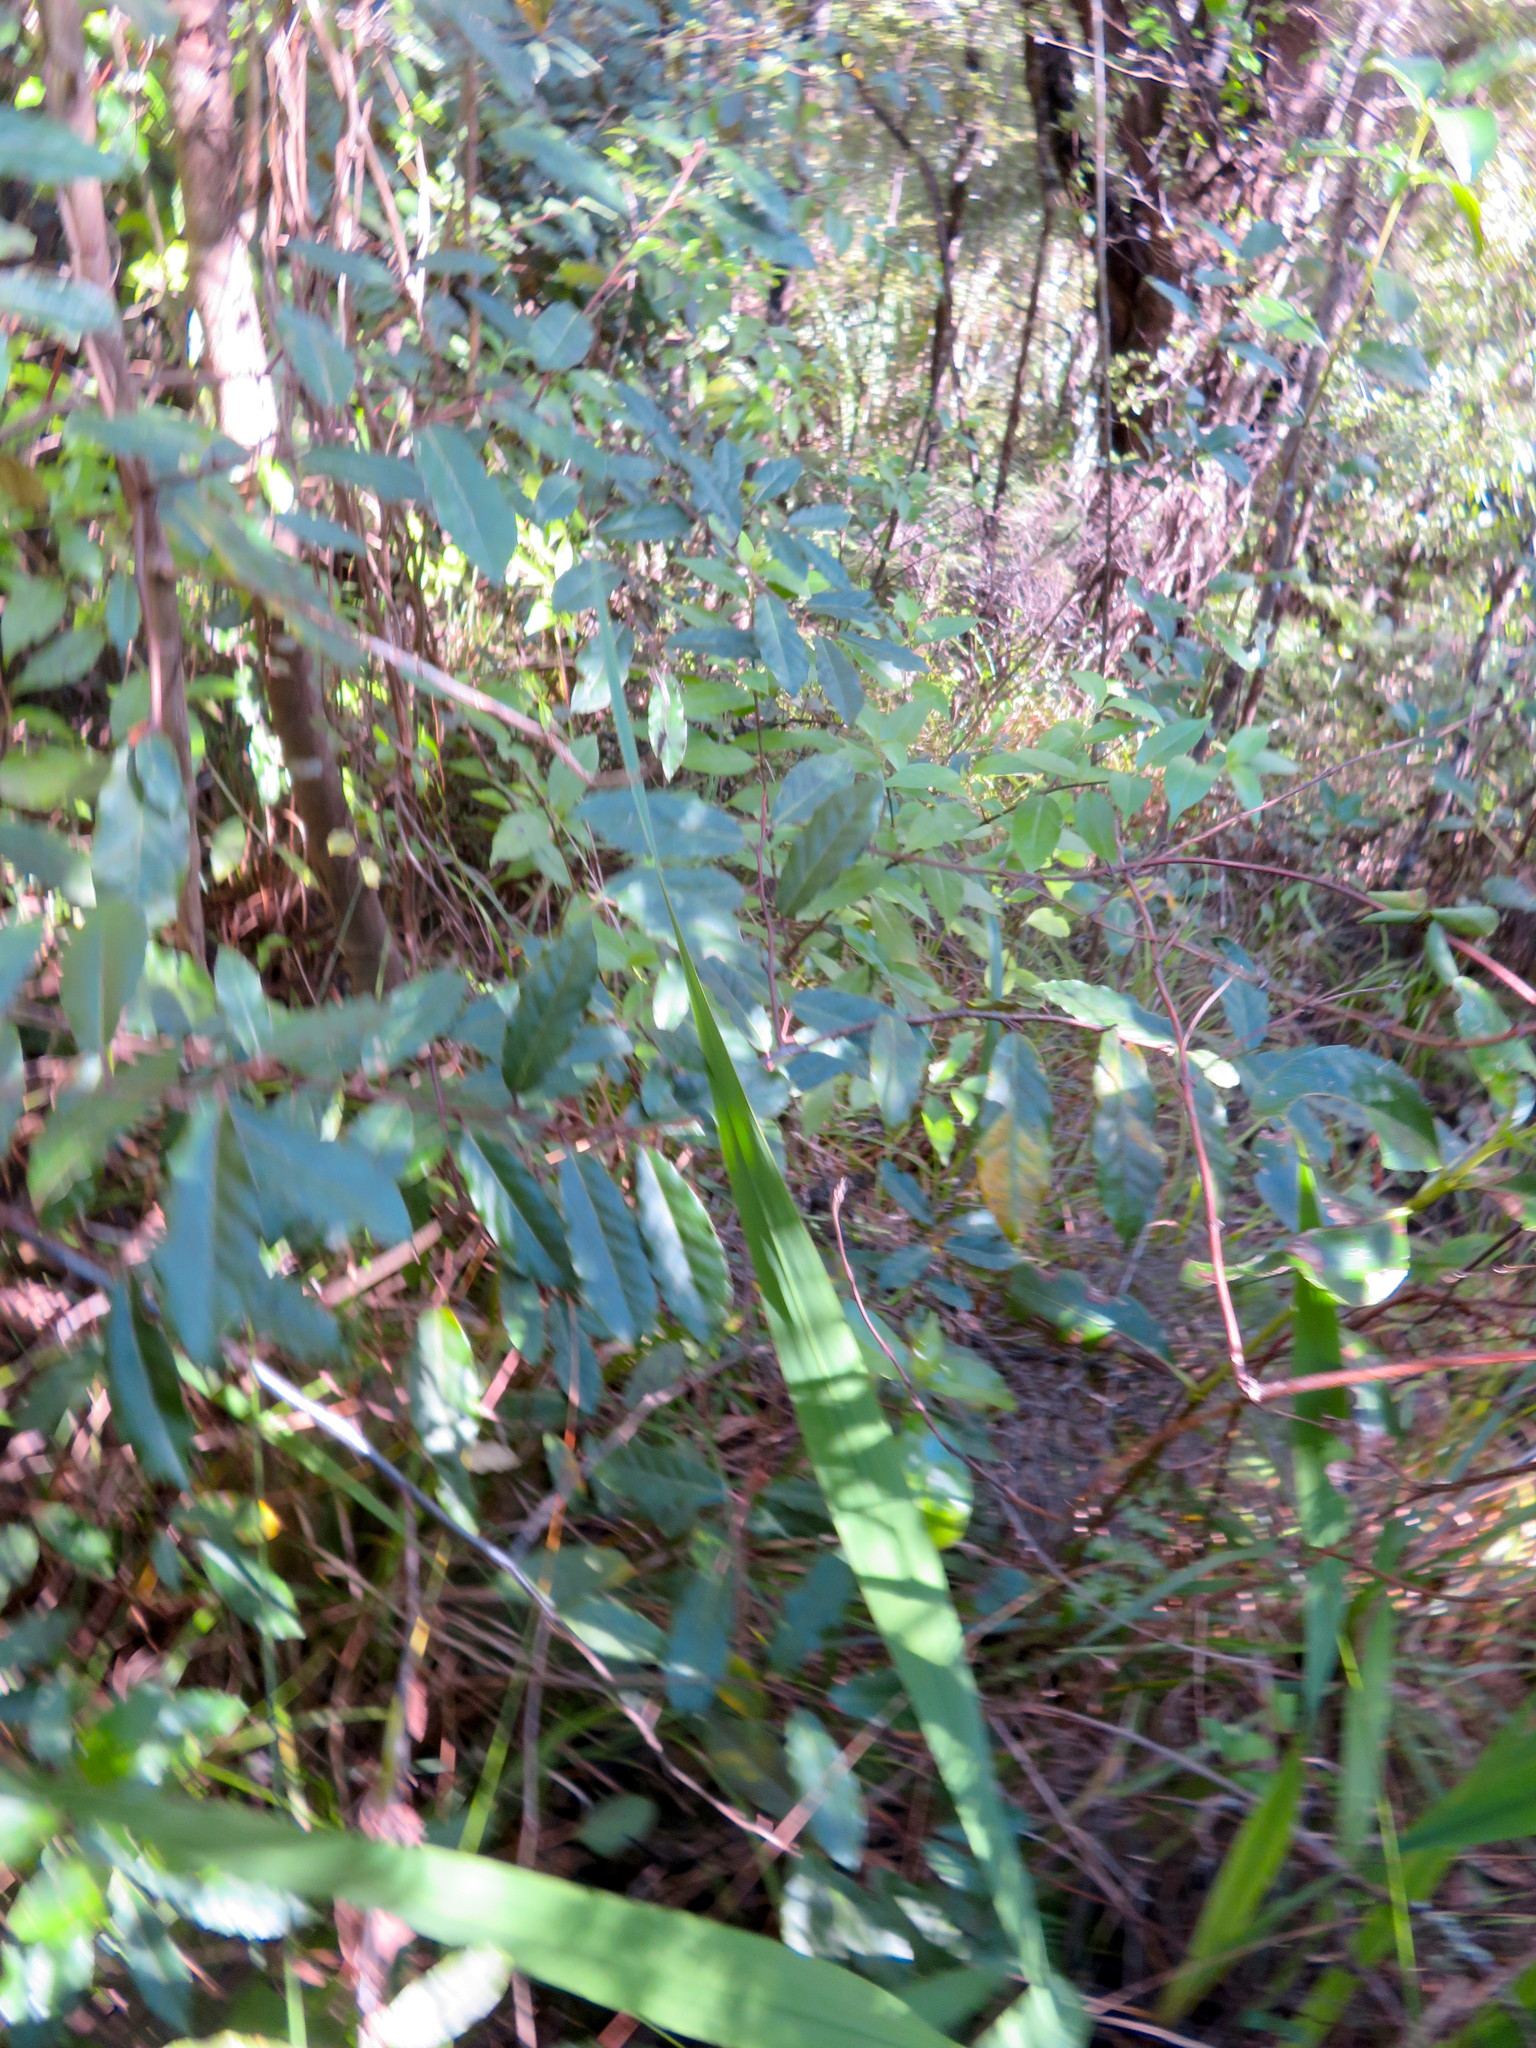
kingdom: Plantae
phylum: Tracheophyta
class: Magnoliopsida
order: Rosales
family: Elaeagnaceae
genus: Elaeagnus
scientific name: Elaeagnus reflexa
